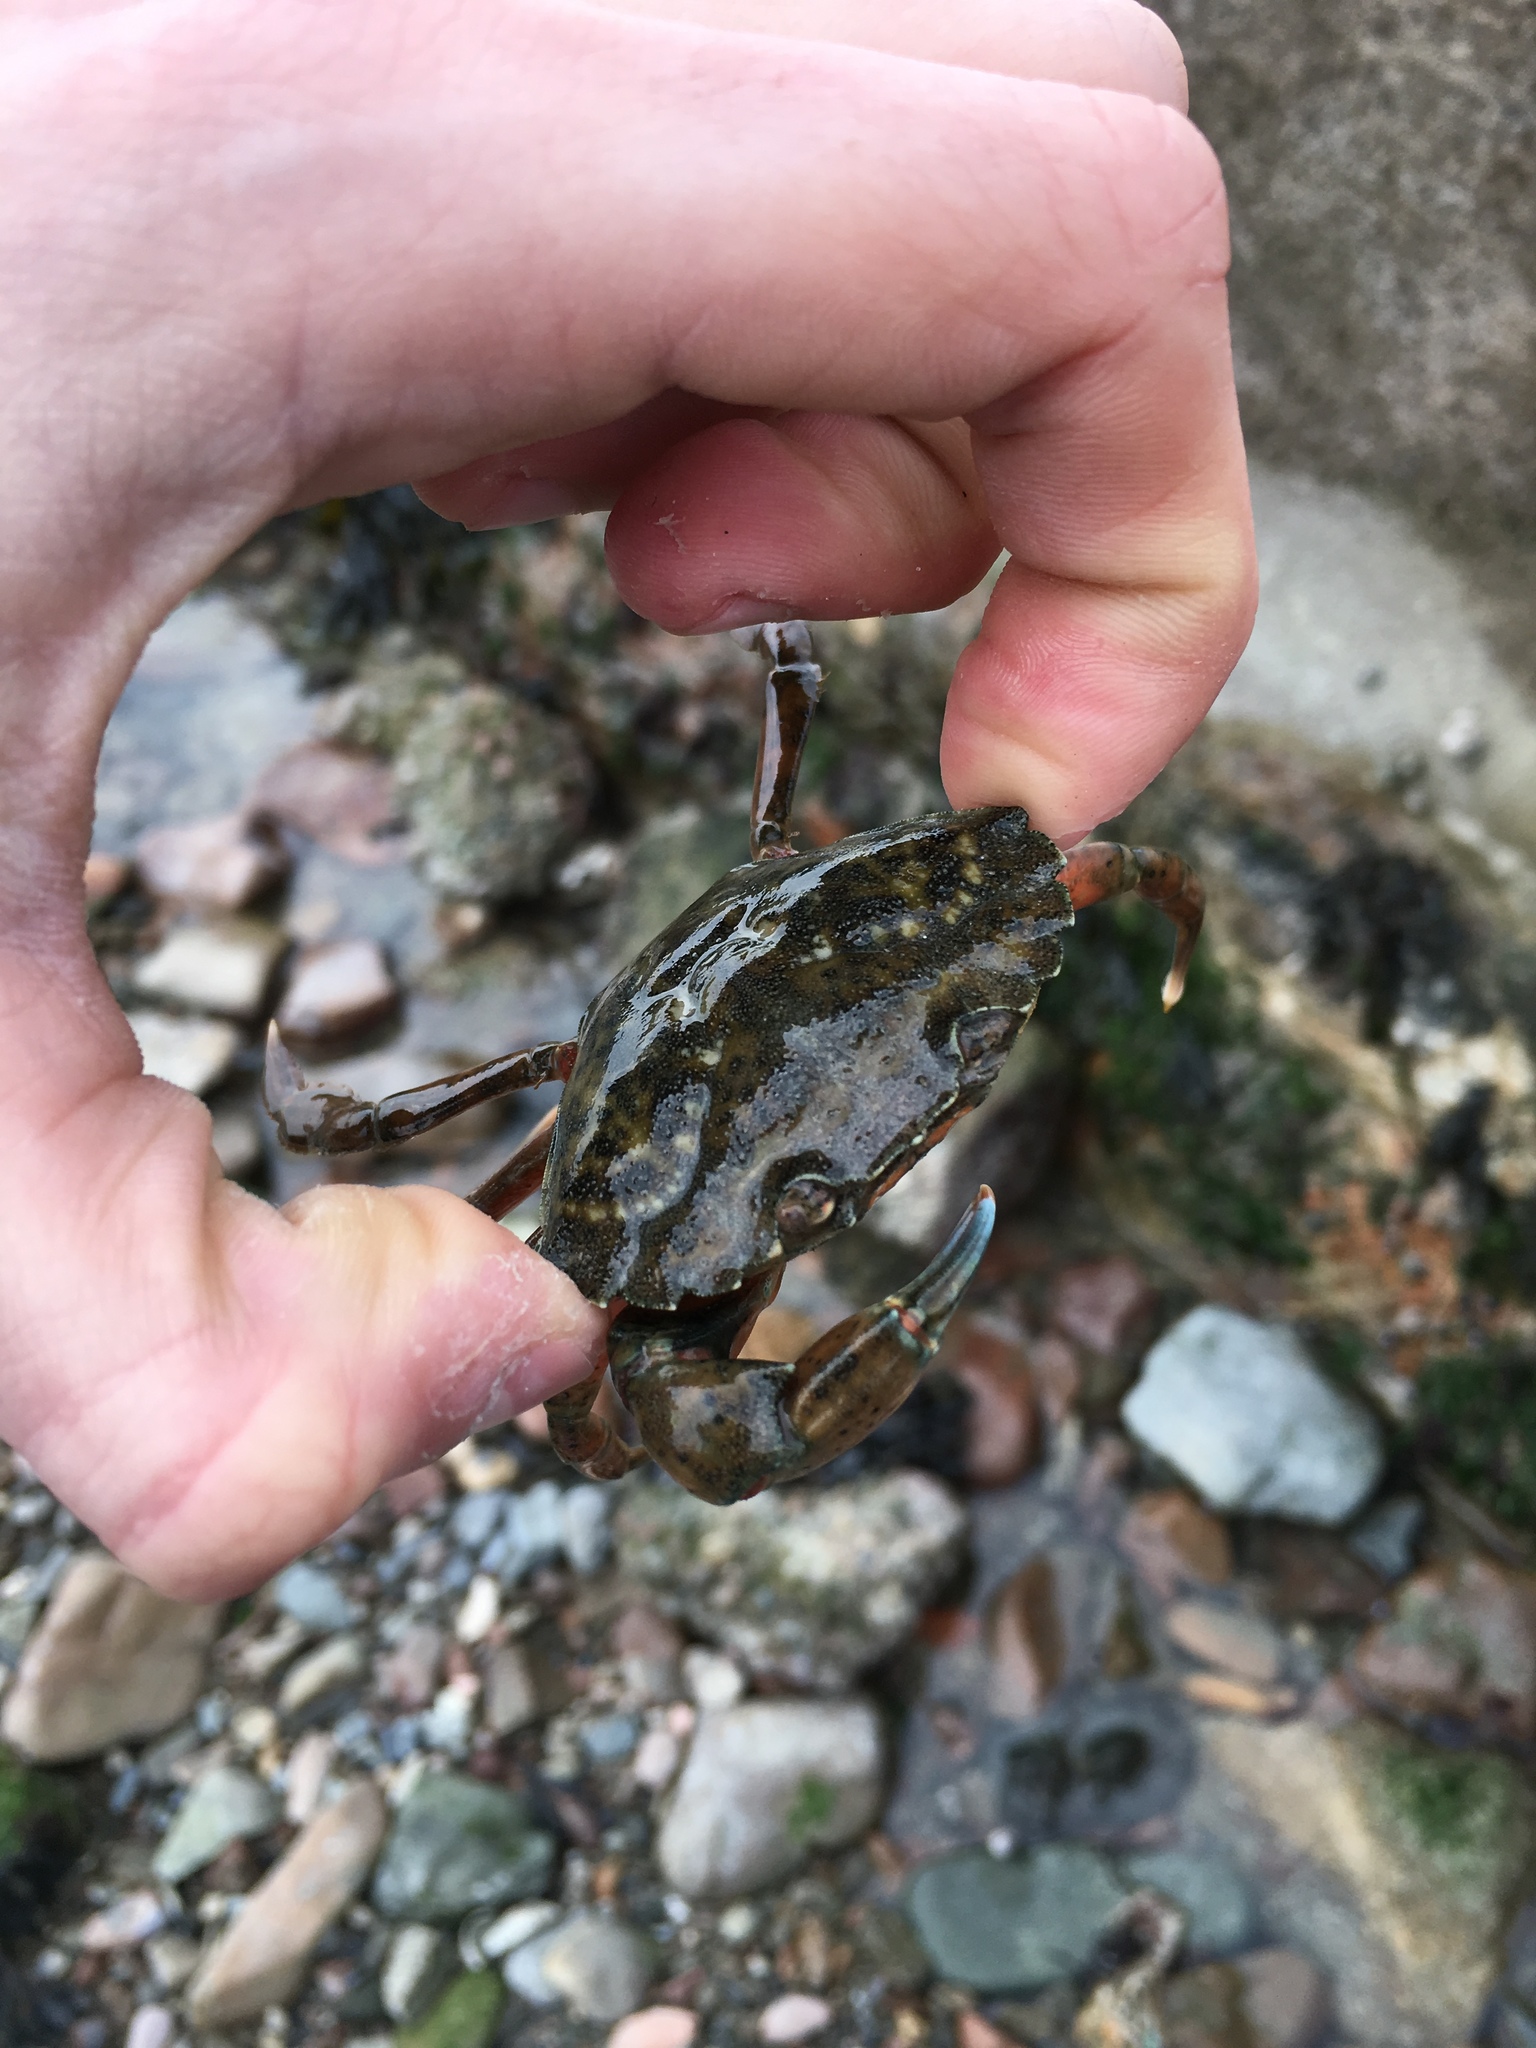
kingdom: Animalia
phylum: Arthropoda
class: Malacostraca
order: Decapoda
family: Carcinidae
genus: Carcinus
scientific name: Carcinus maenas
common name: European green crab
